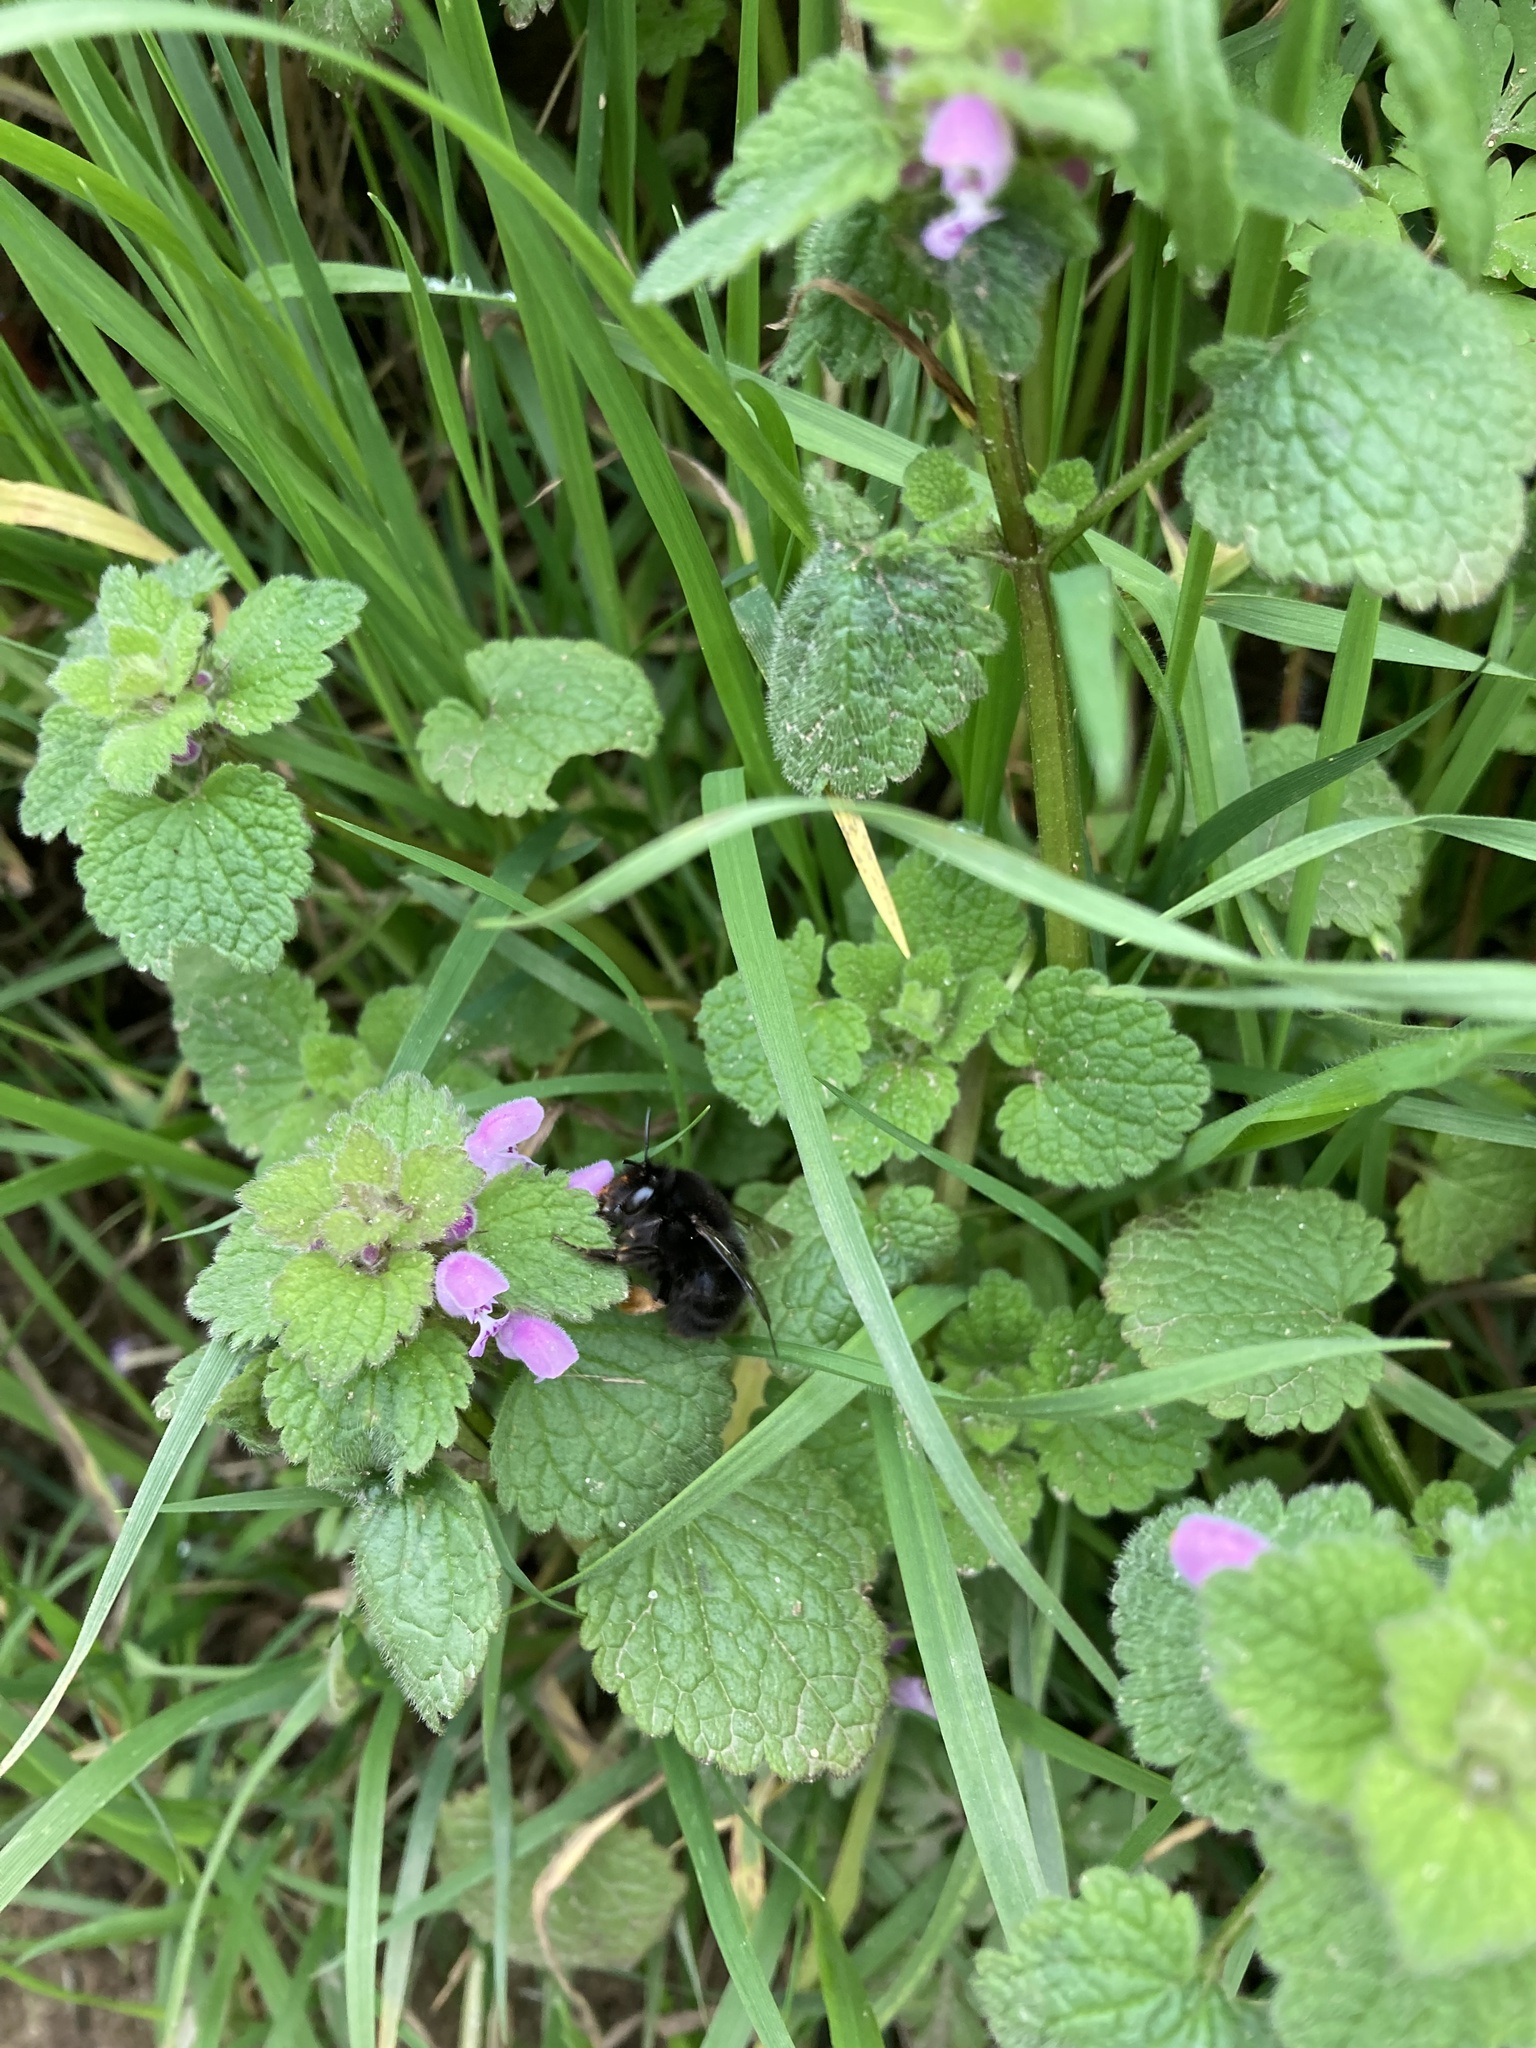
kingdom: Animalia
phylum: Arthropoda
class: Insecta
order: Hymenoptera
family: Apidae
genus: Anthophora
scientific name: Anthophora plumipes
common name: Hairy-footed flower bee
